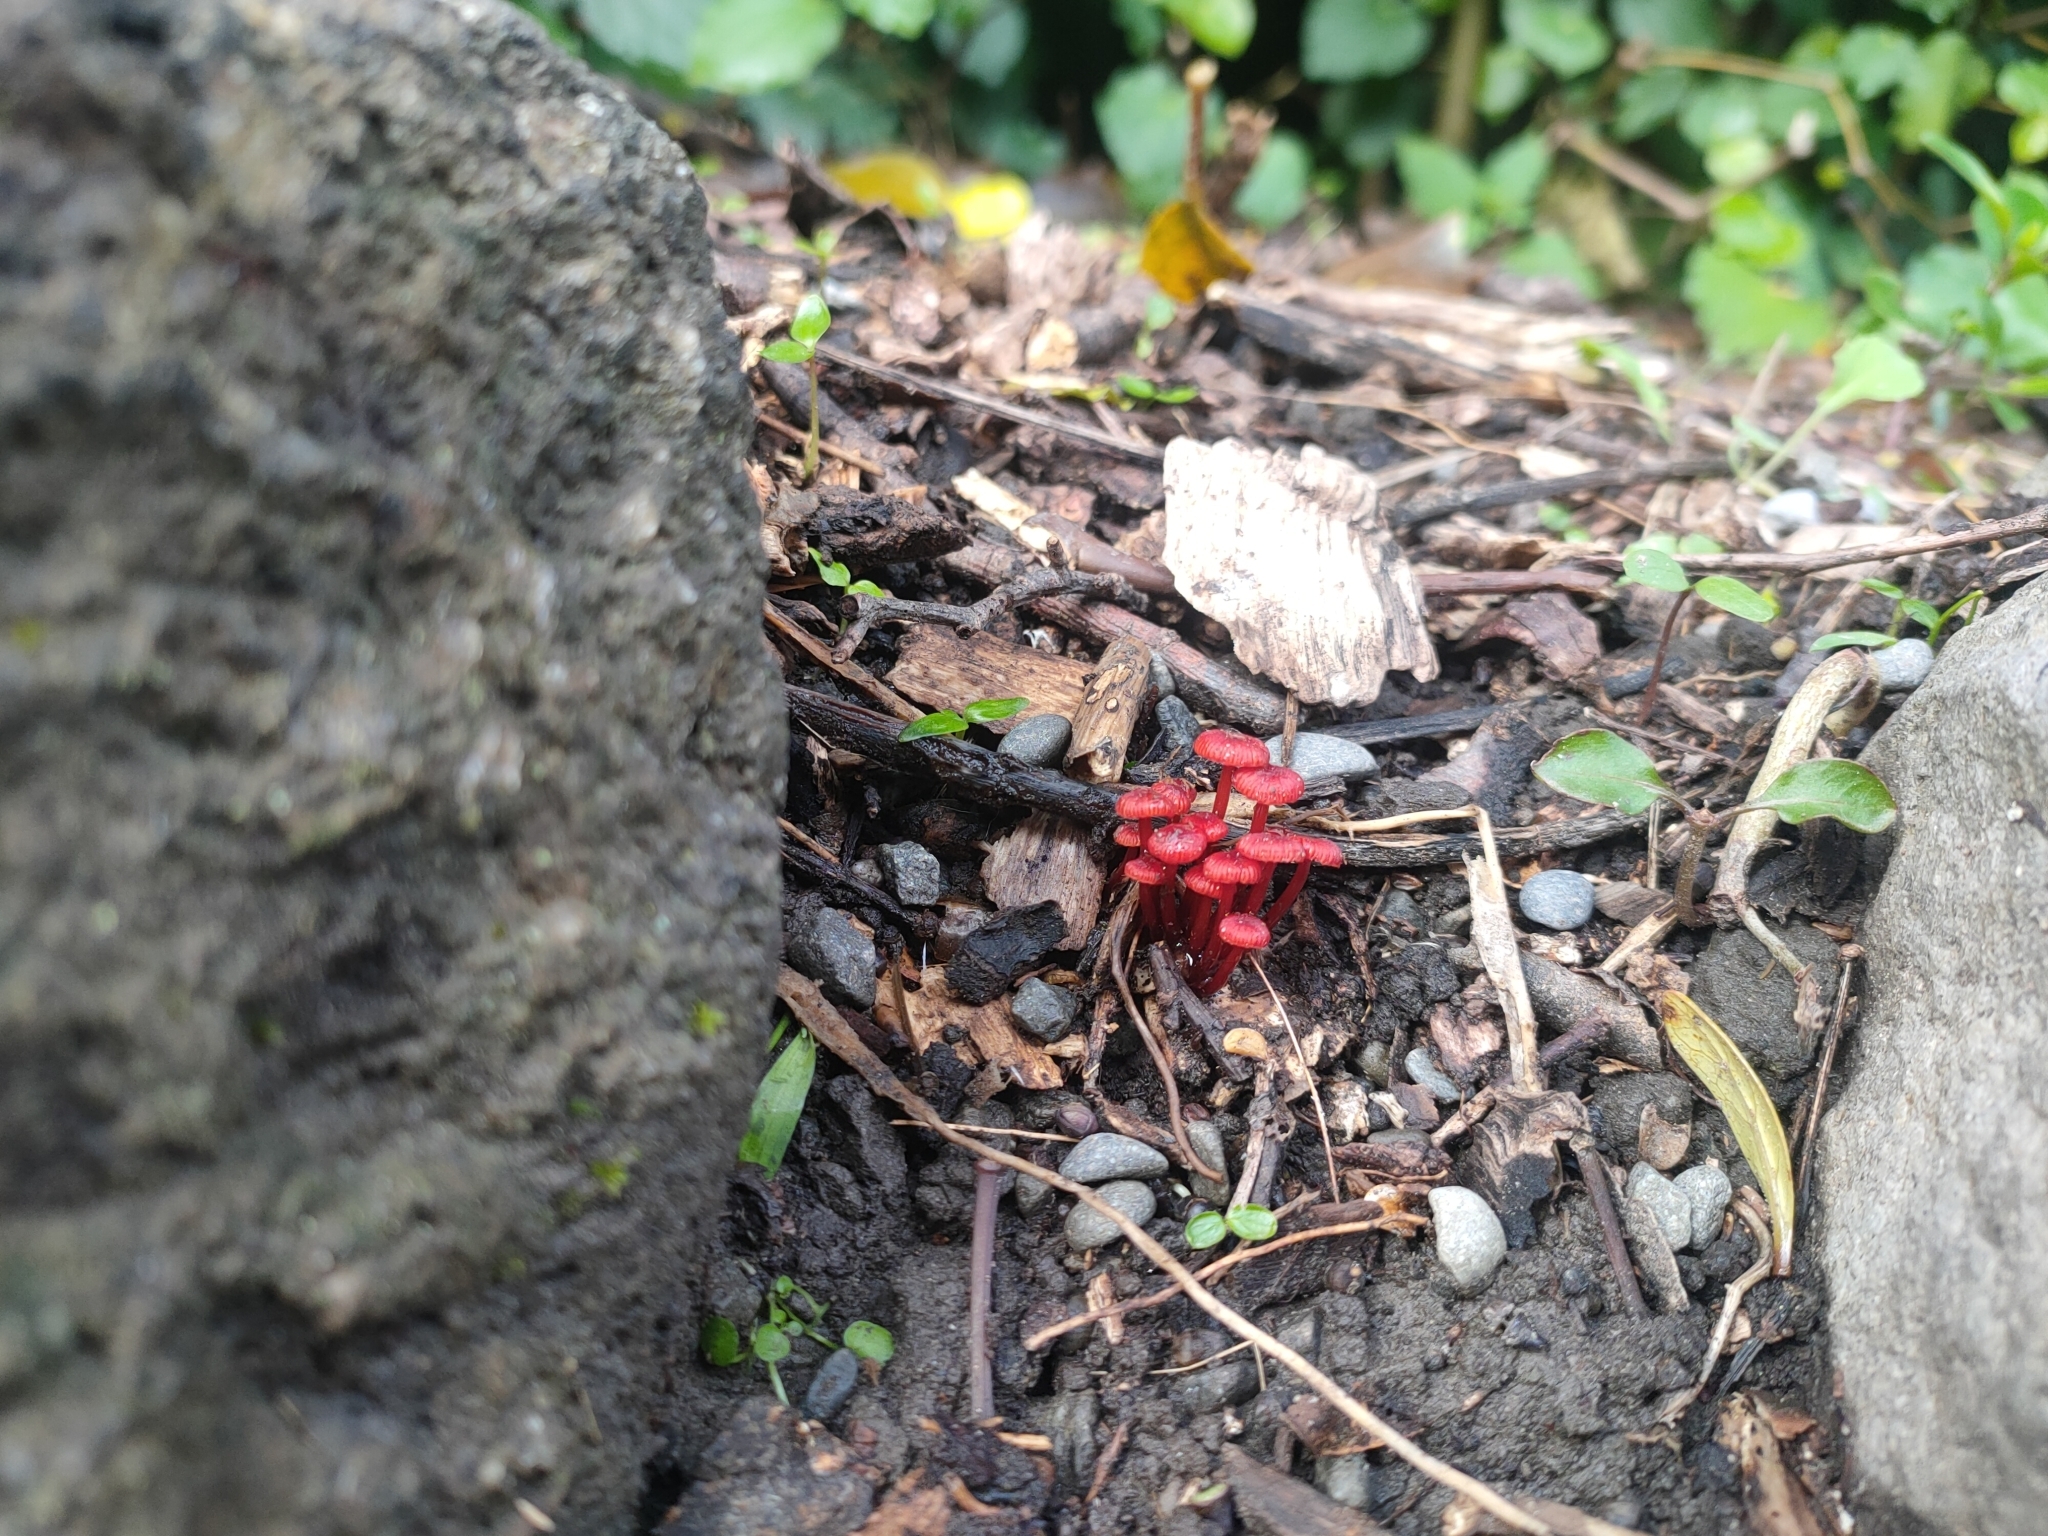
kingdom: Fungi
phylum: Basidiomycota
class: Agaricomycetes
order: Agaricales
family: Mycenaceae
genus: Cruentomycena
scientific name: Cruentomycena viscidocruenta
